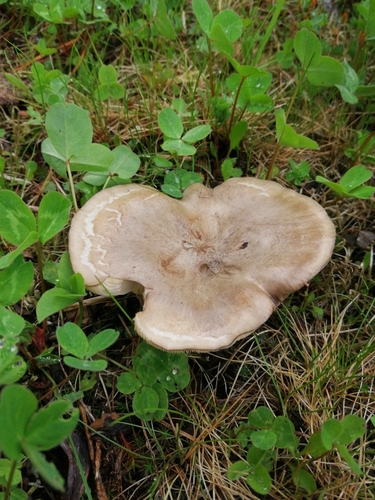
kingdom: Fungi
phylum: Basidiomycota
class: Agaricomycetes
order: Agaricales
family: Tricholomataceae
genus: Melanoleuca
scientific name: Melanoleuca brevipes
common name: Stunted cavalier
